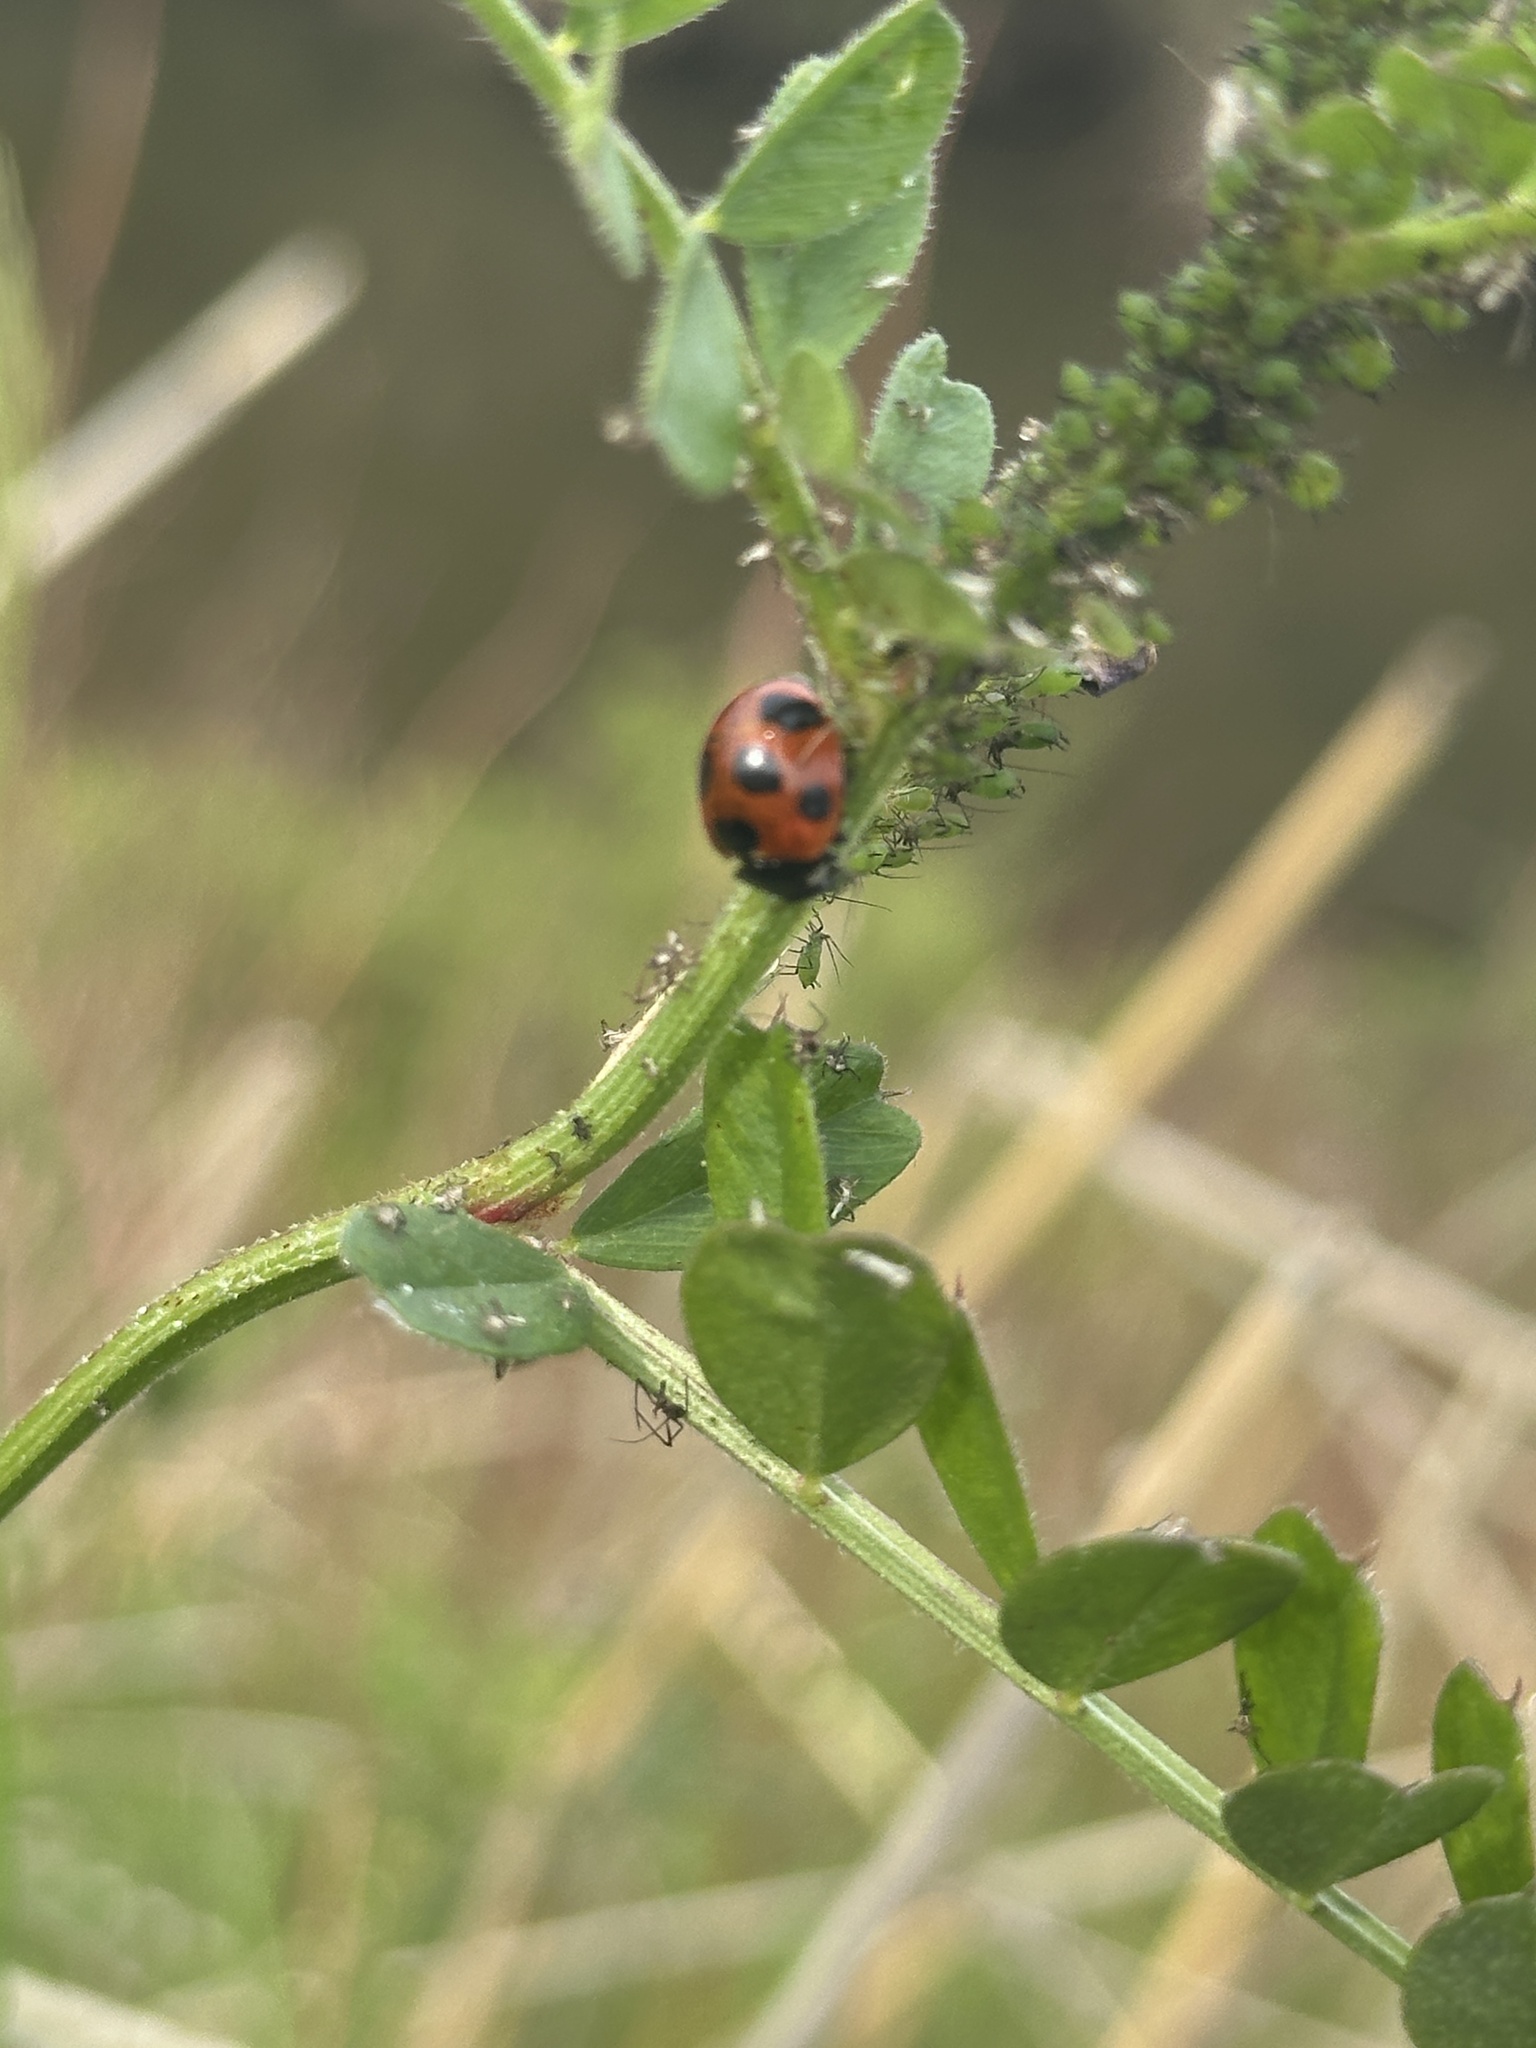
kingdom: Animalia
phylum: Arthropoda
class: Insecta
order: Coleoptera
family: Coccinellidae
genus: Coccinella
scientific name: Coccinella septempunctata
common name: Sevenspotted lady beetle
